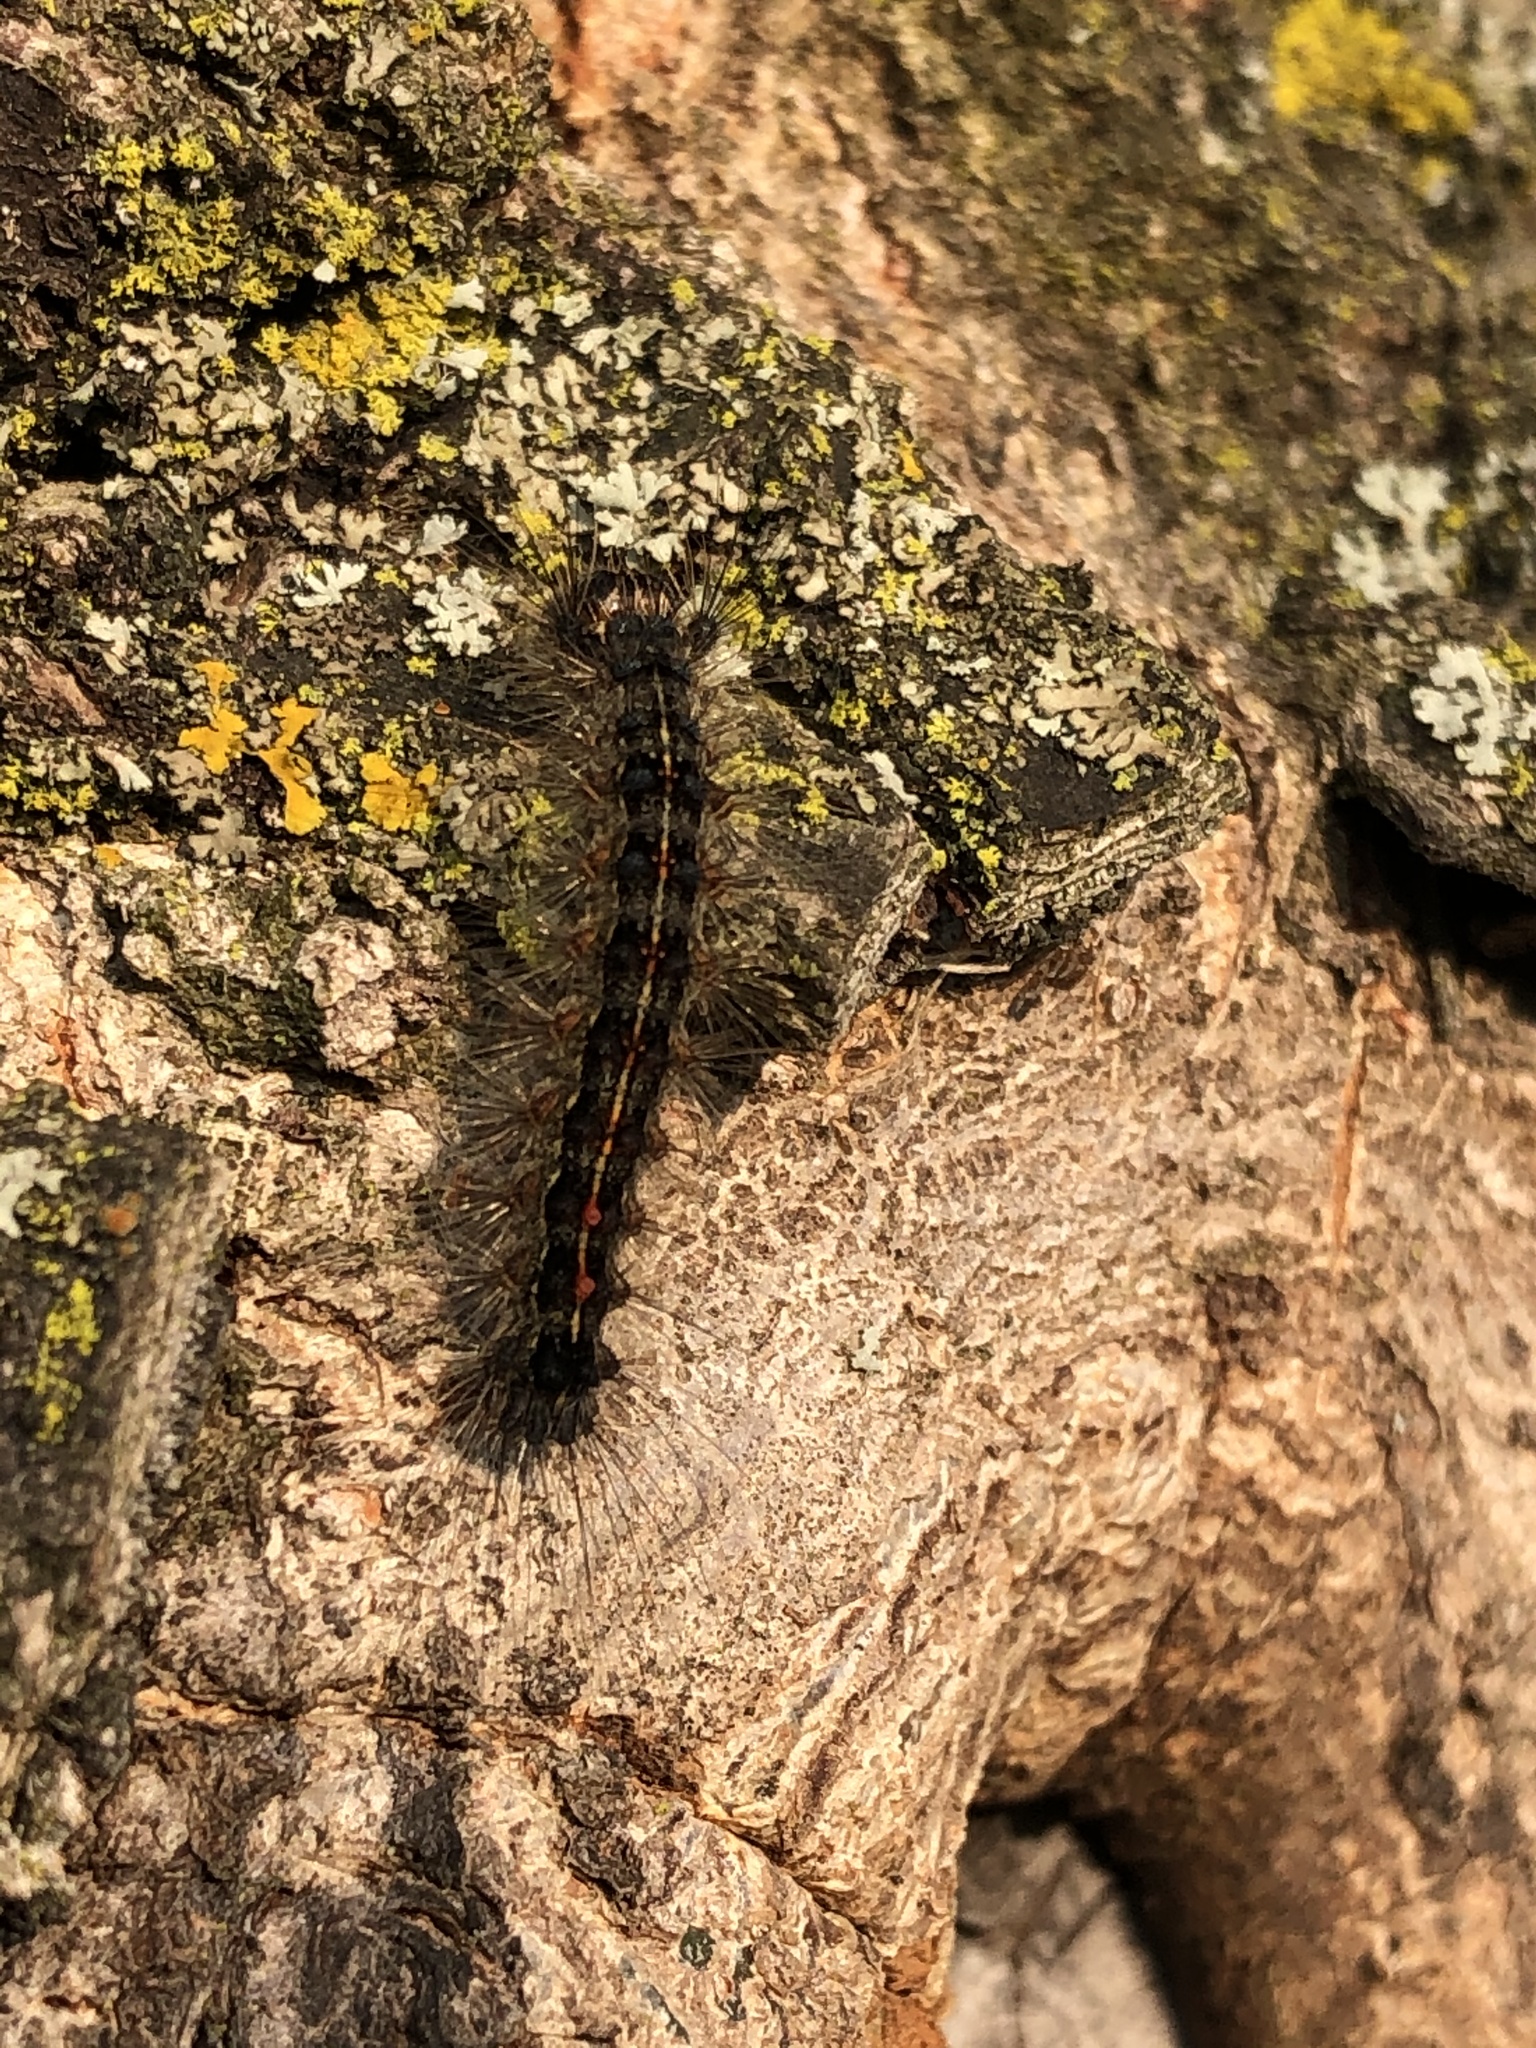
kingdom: Animalia
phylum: Arthropoda
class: Insecta
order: Lepidoptera
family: Erebidae
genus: Lymantria
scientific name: Lymantria dispar
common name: Gypsy moth
